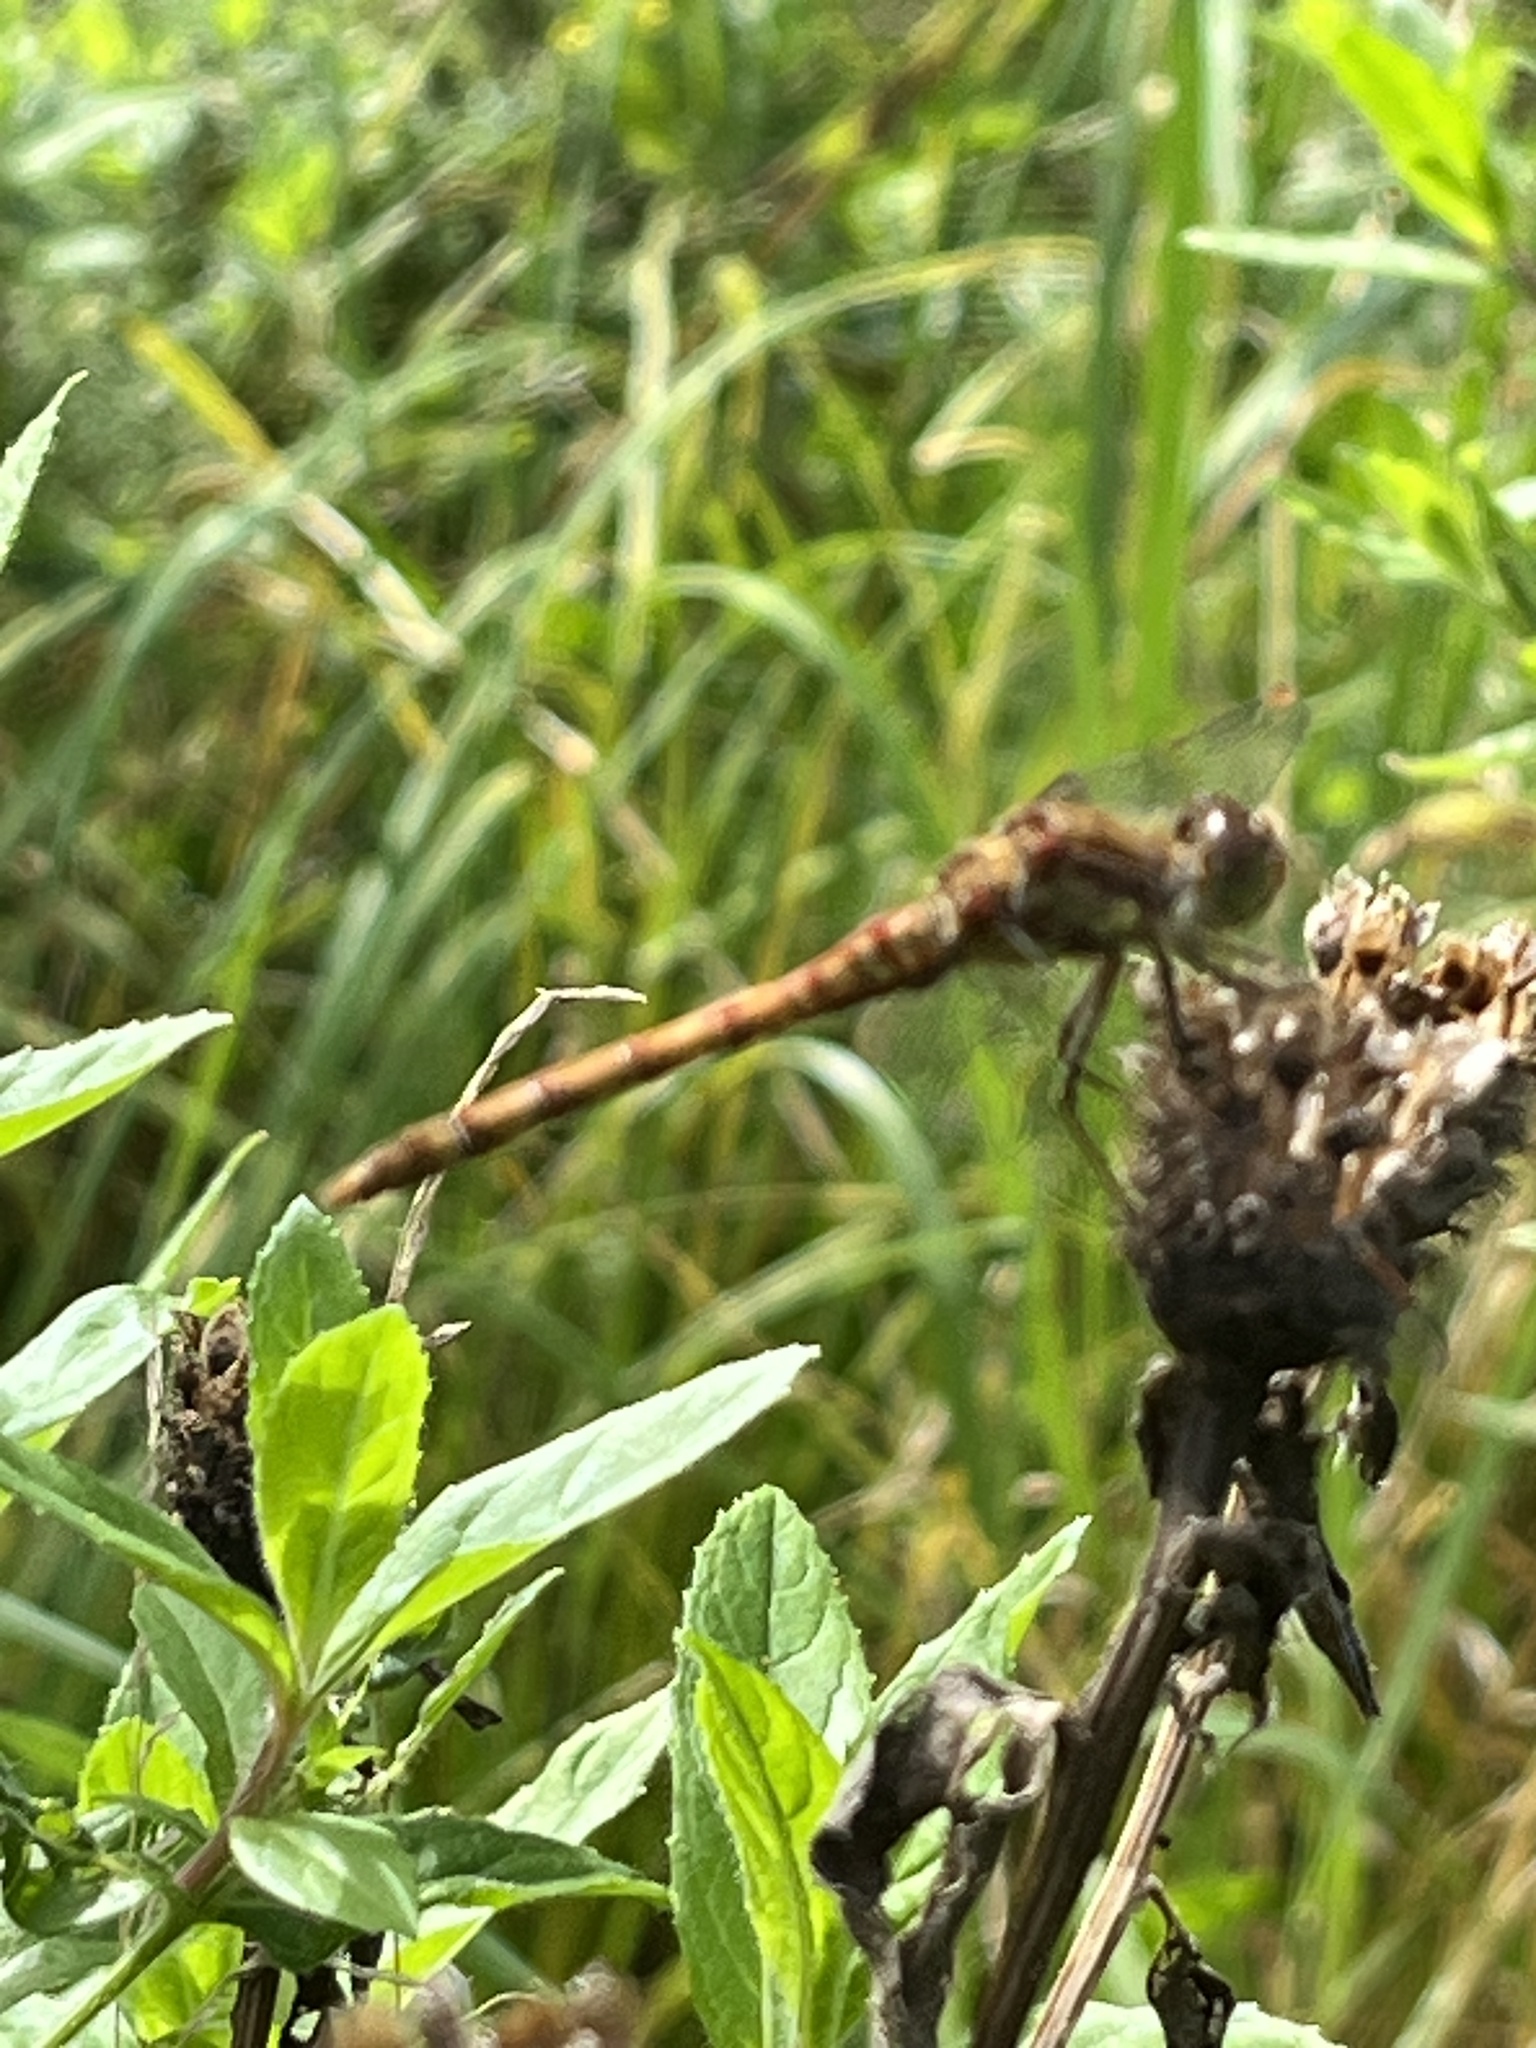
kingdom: Animalia
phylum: Arthropoda
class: Insecta
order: Odonata
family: Libellulidae
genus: Sympetrum
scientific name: Sympetrum striolatum
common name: Common darter
